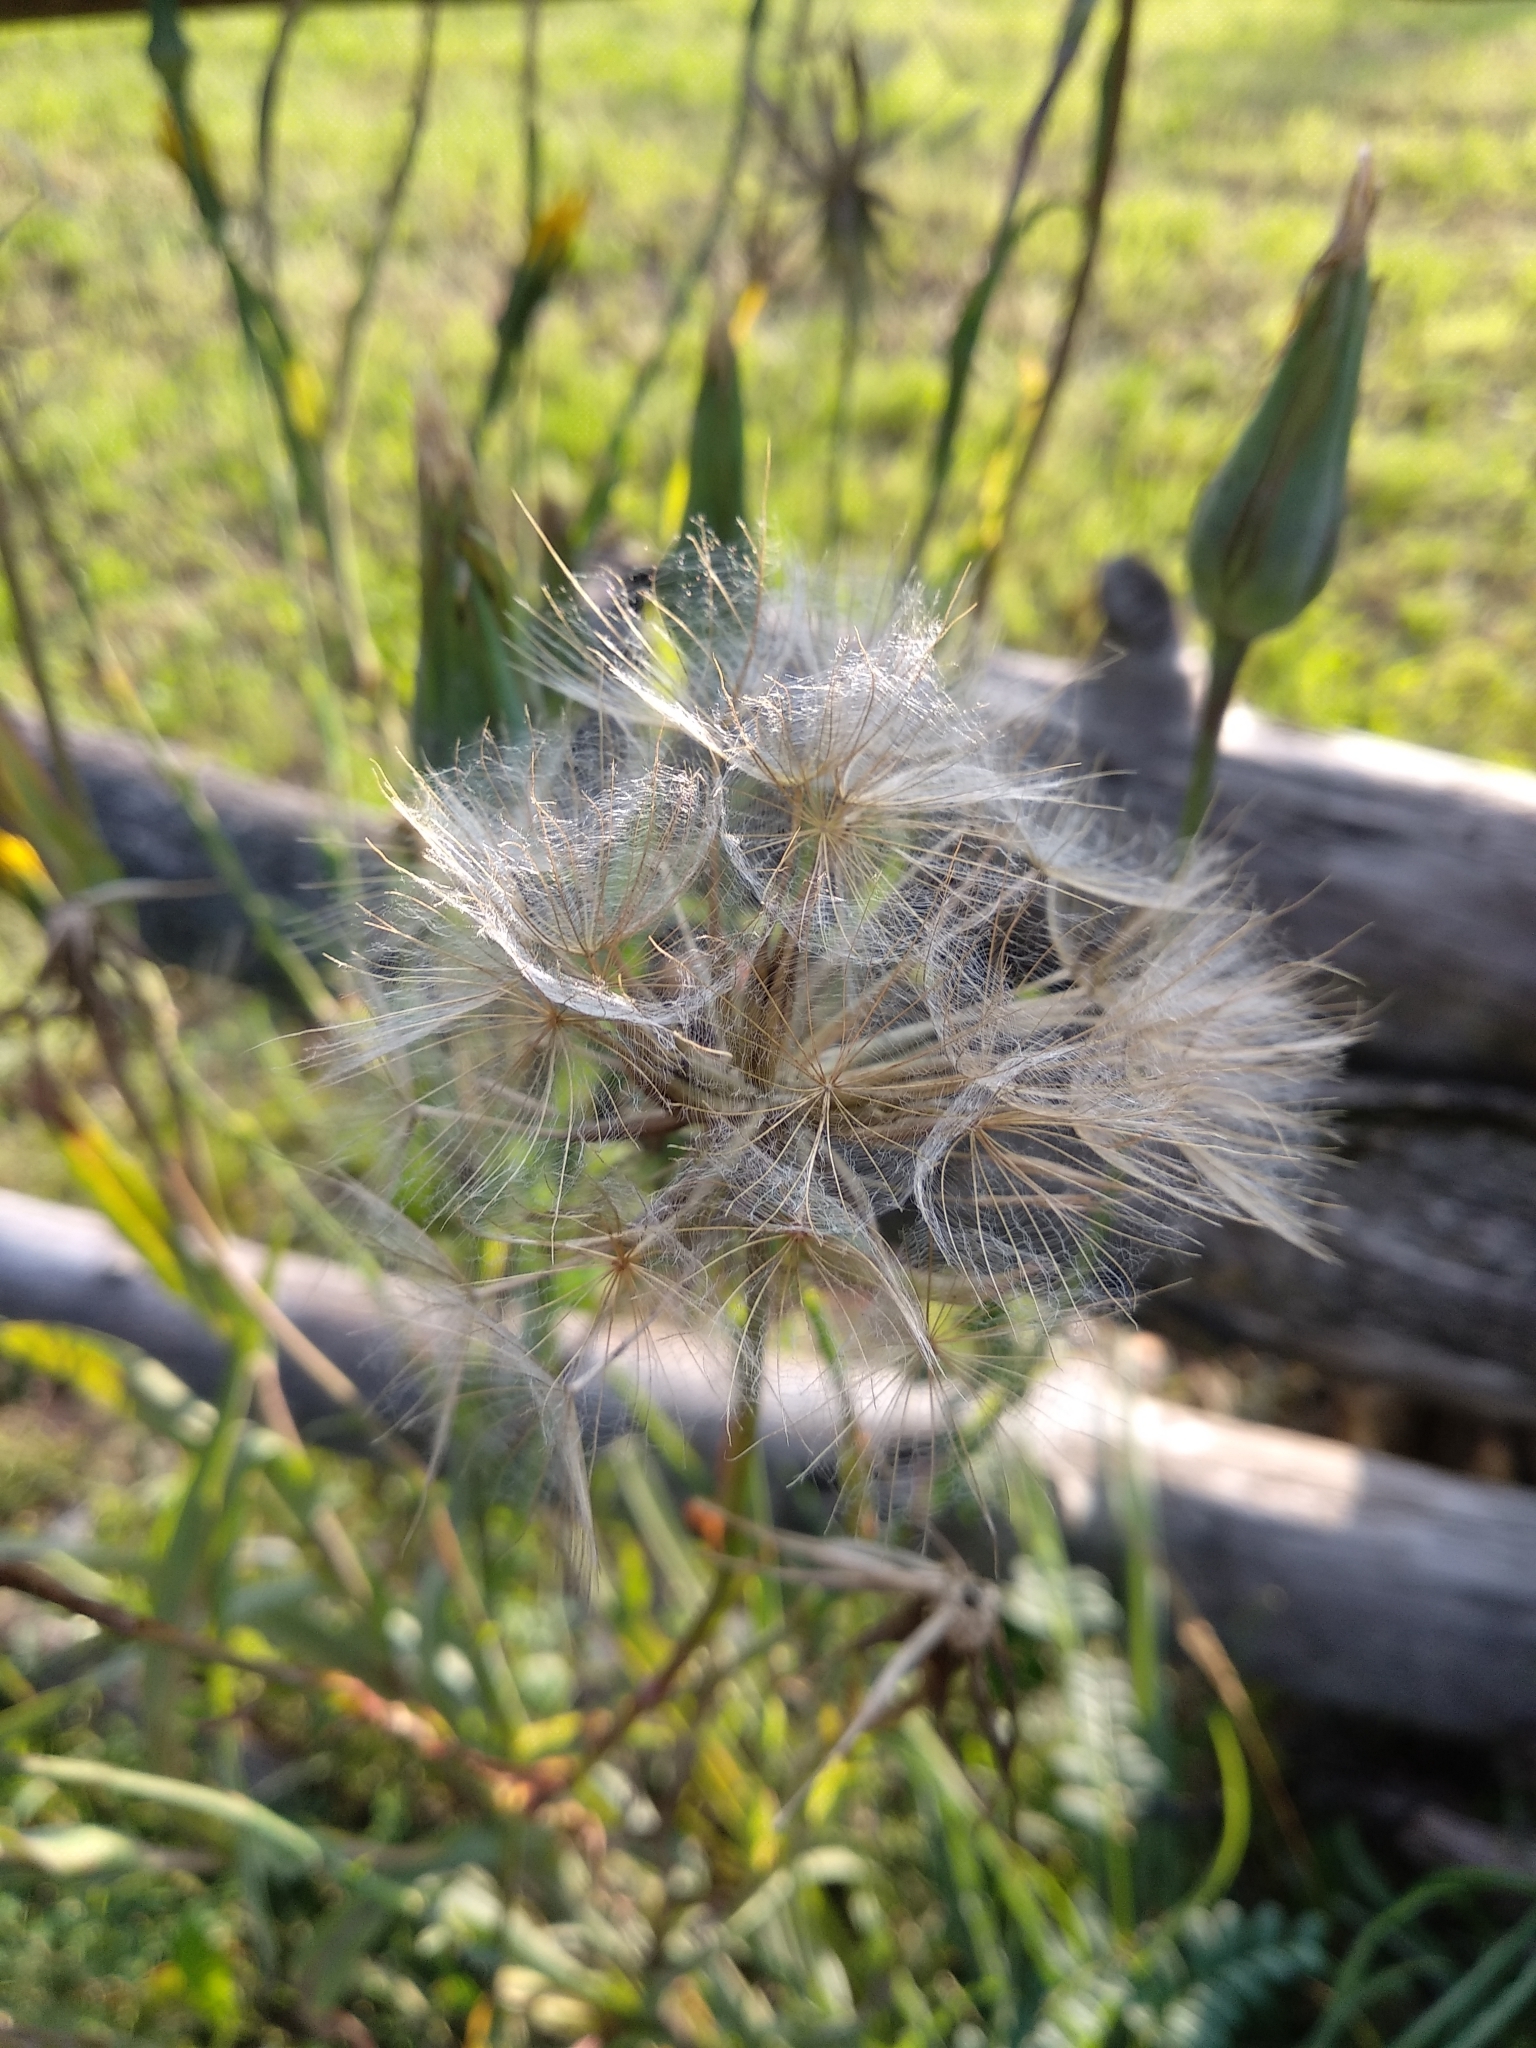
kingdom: Plantae
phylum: Tracheophyta
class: Magnoliopsida
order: Asterales
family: Asteraceae
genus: Tragopogon
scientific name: Tragopogon pratensis
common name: Goat's-beard
